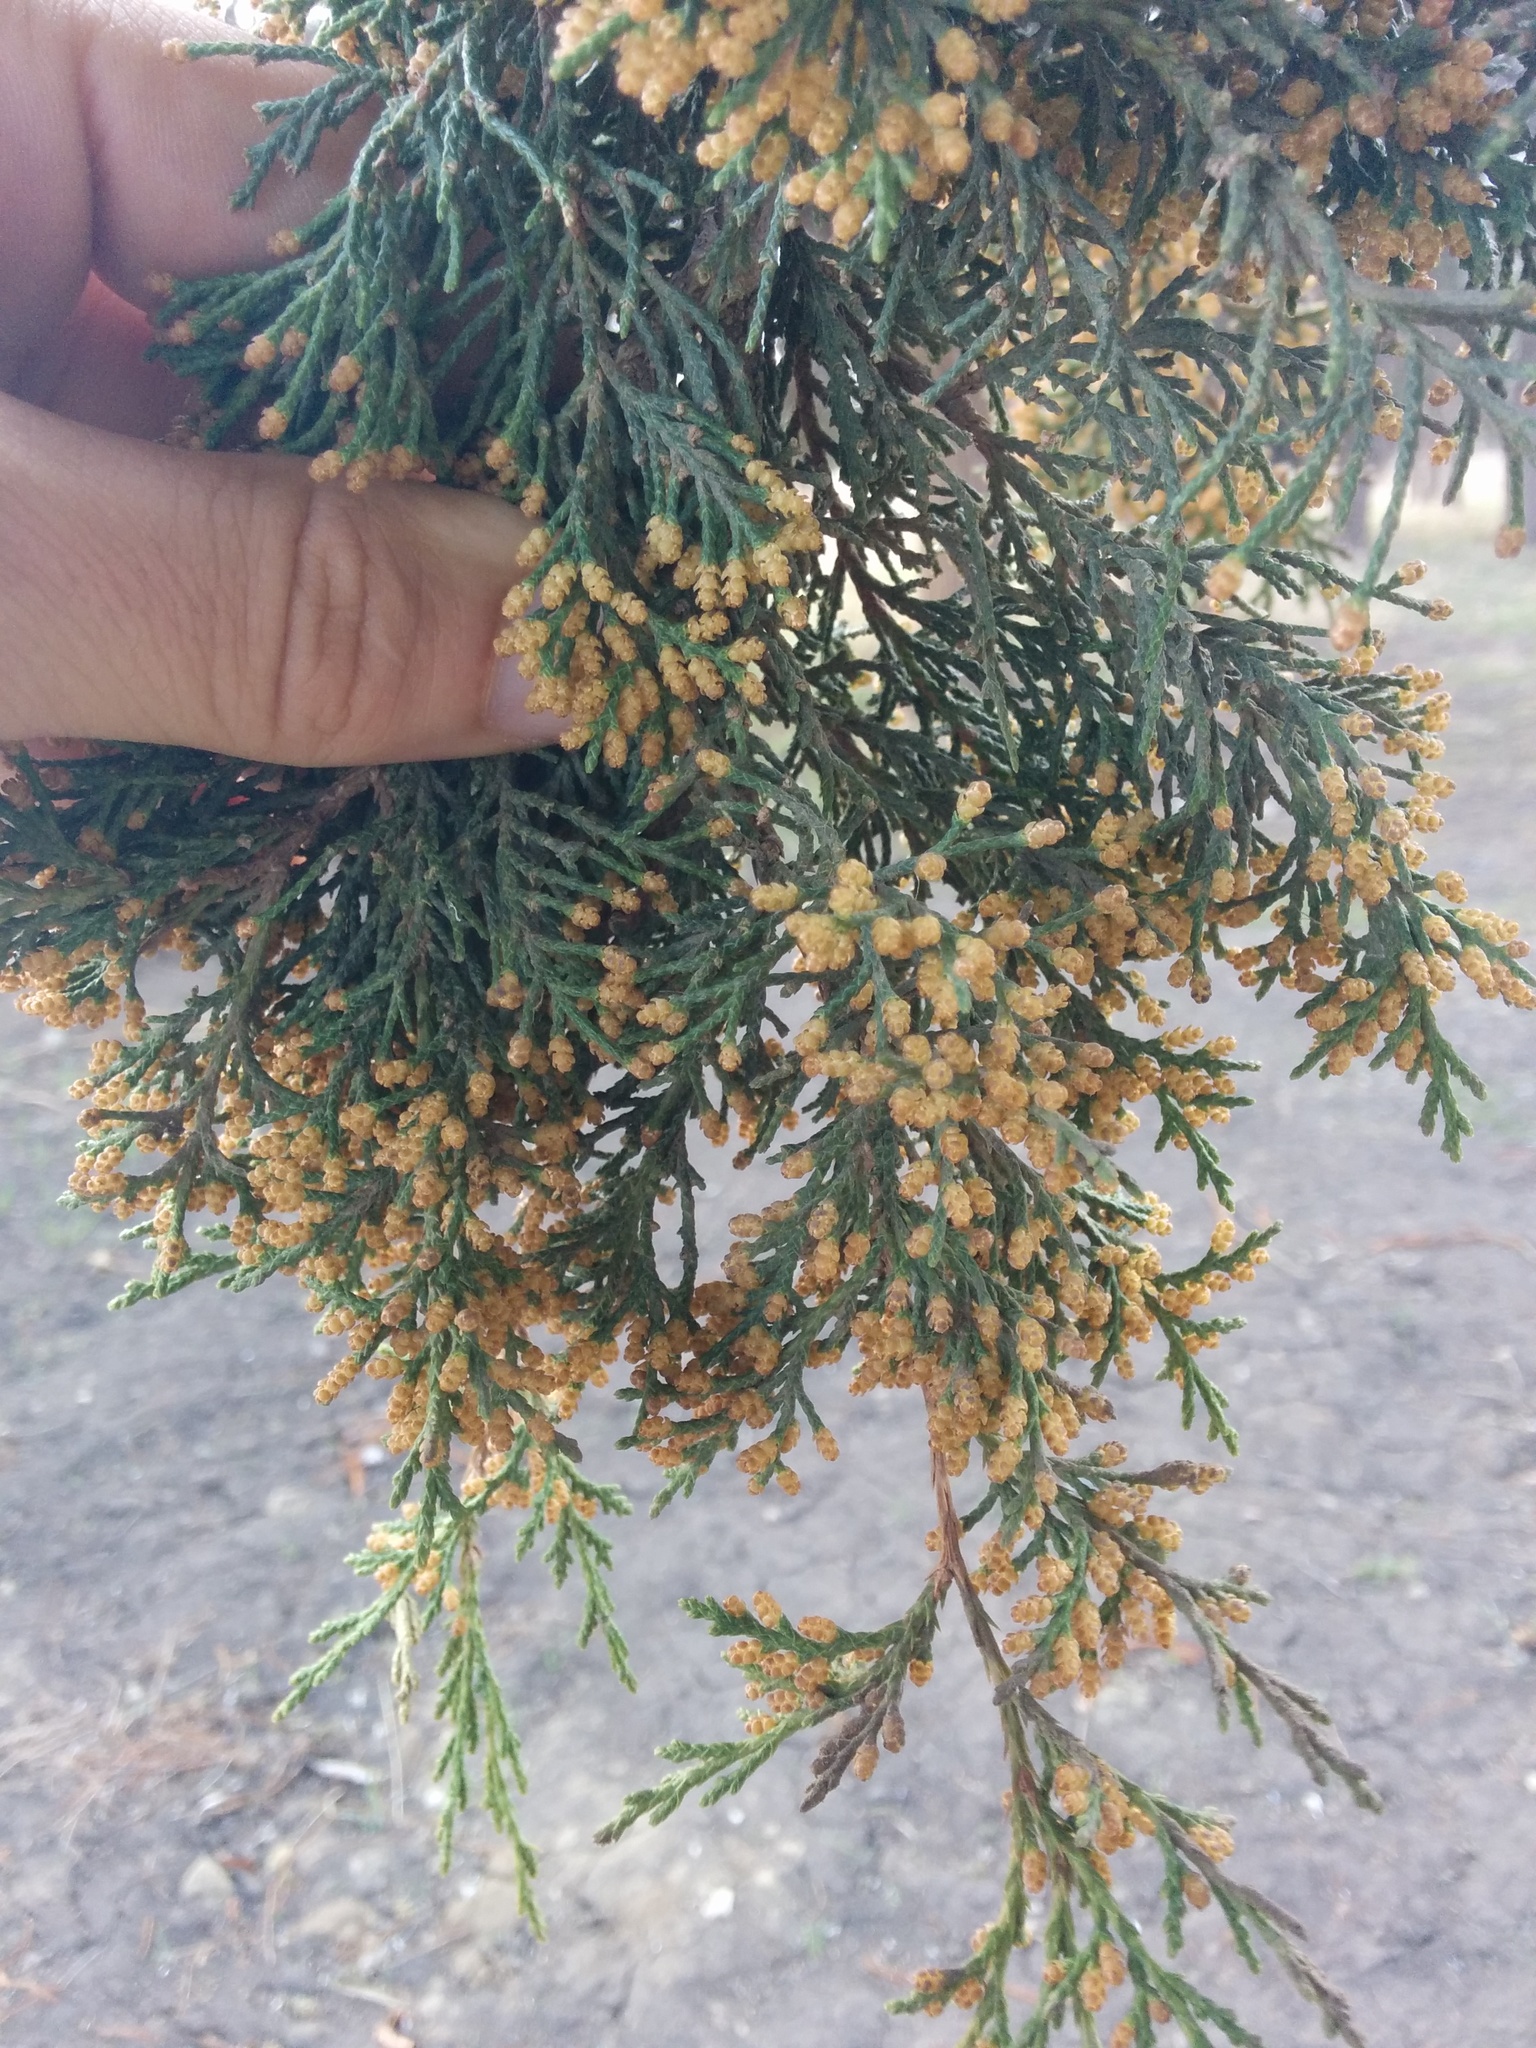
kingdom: Plantae
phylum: Tracheophyta
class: Pinopsida
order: Pinales
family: Cupressaceae
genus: Juniperus
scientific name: Juniperus virginiana
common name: Red juniper
